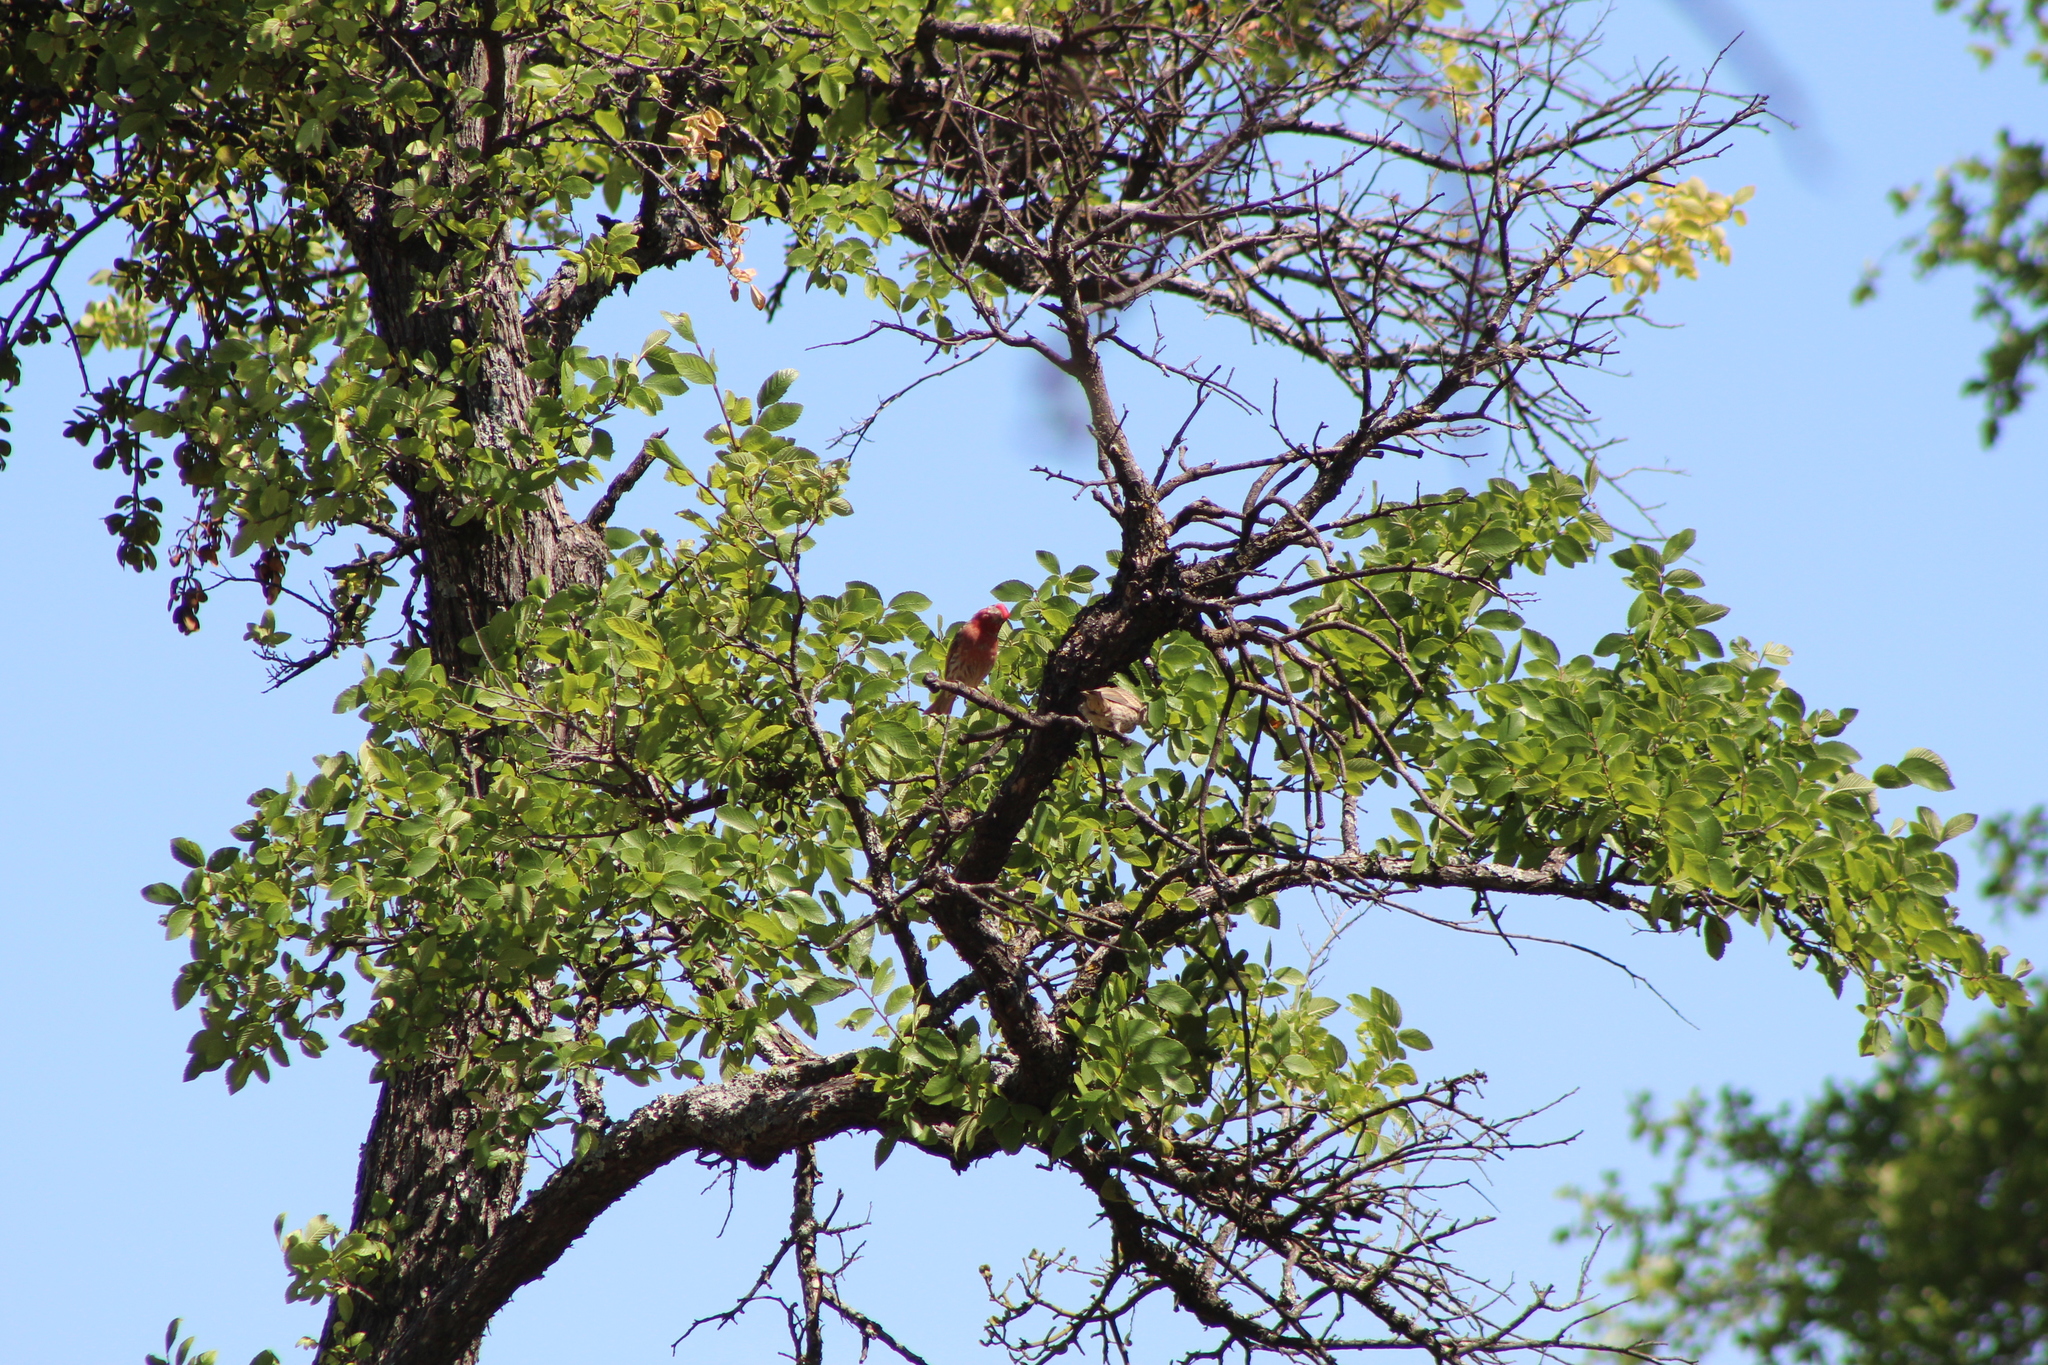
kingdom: Animalia
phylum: Chordata
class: Aves
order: Passeriformes
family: Fringillidae
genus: Haemorhous
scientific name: Haemorhous mexicanus
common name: House finch
